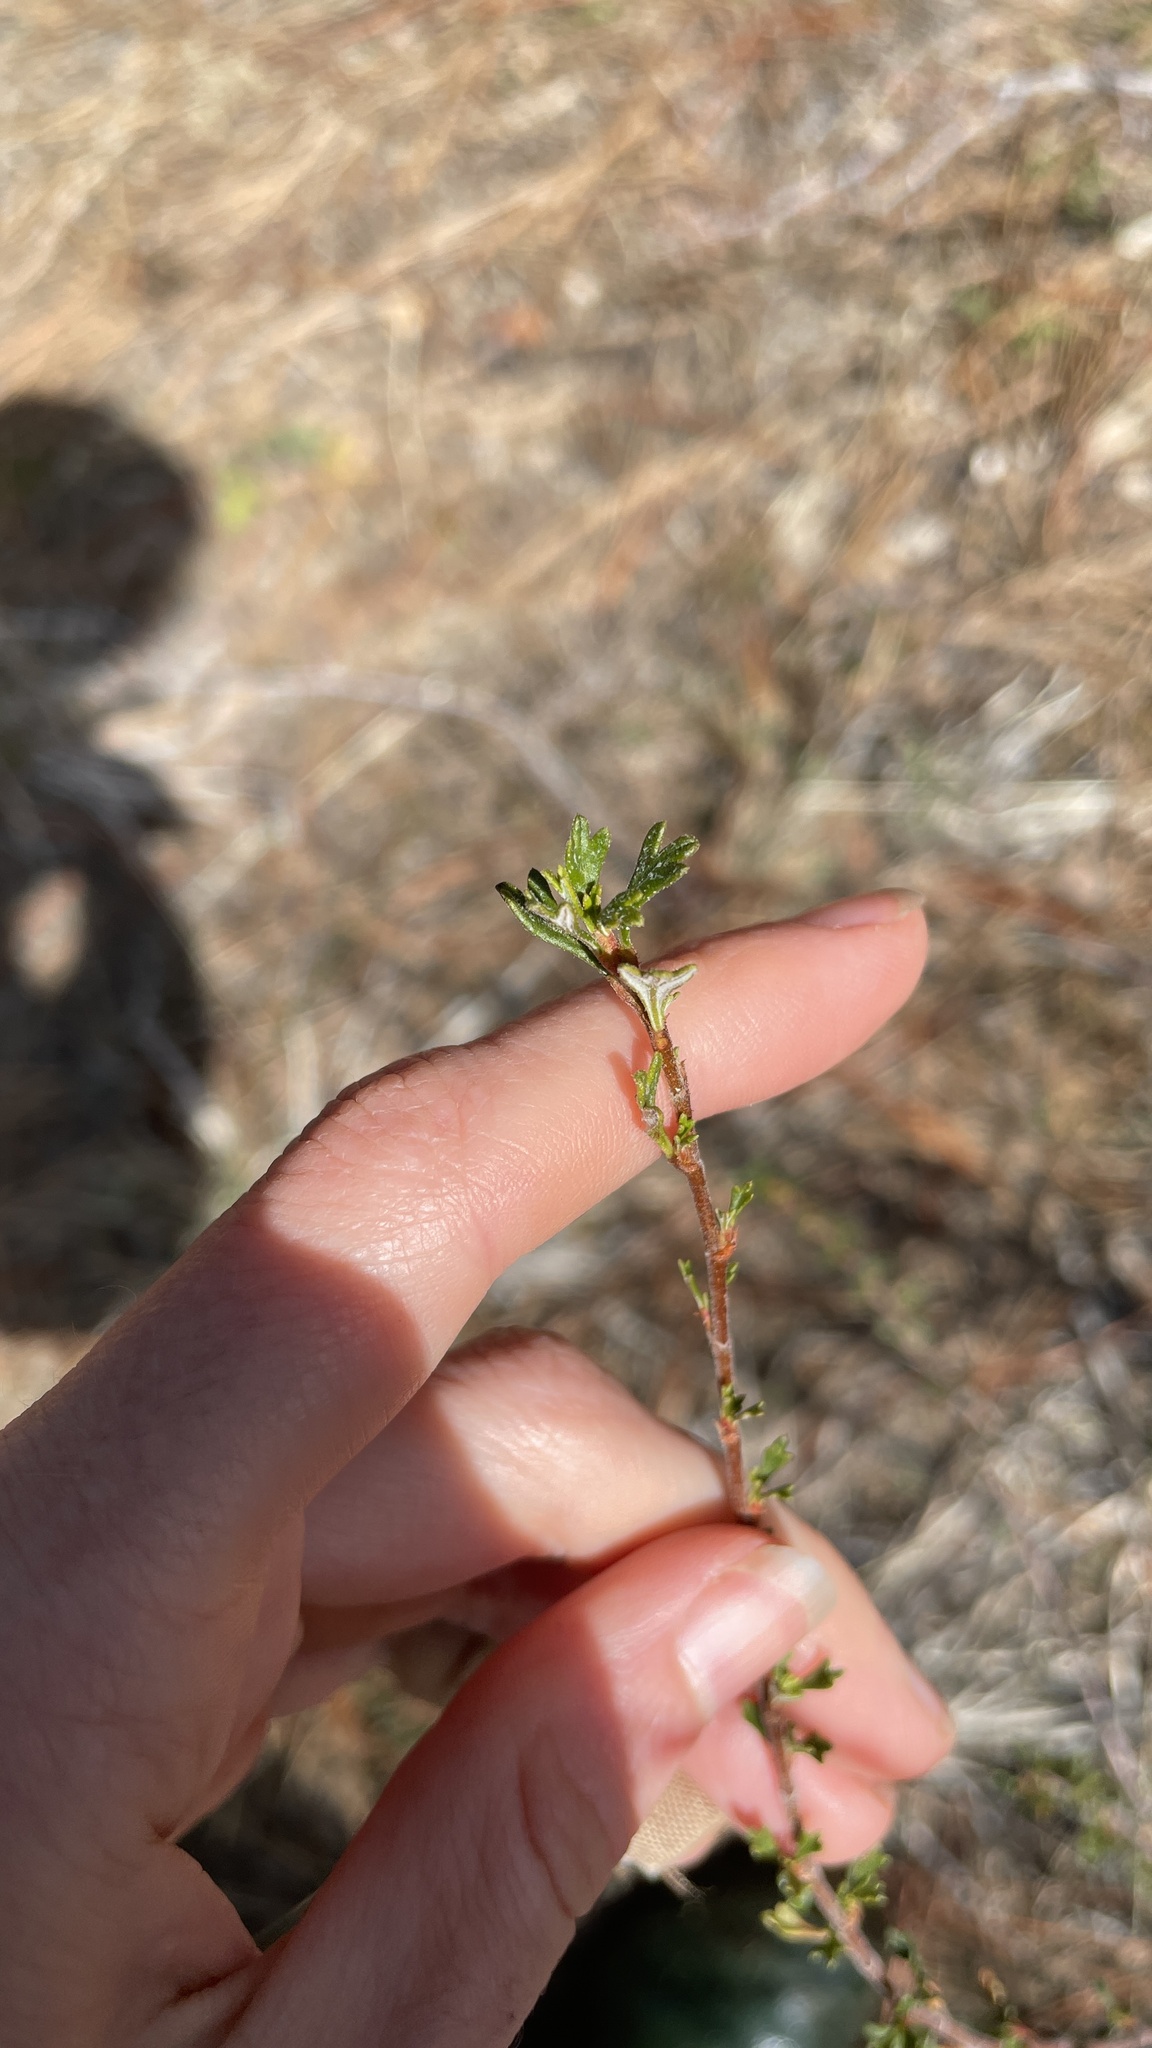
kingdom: Plantae
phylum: Tracheophyta
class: Magnoliopsida
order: Rosales
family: Rosaceae
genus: Purshia
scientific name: Purshia tridentata
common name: Antelope bitterbrush
